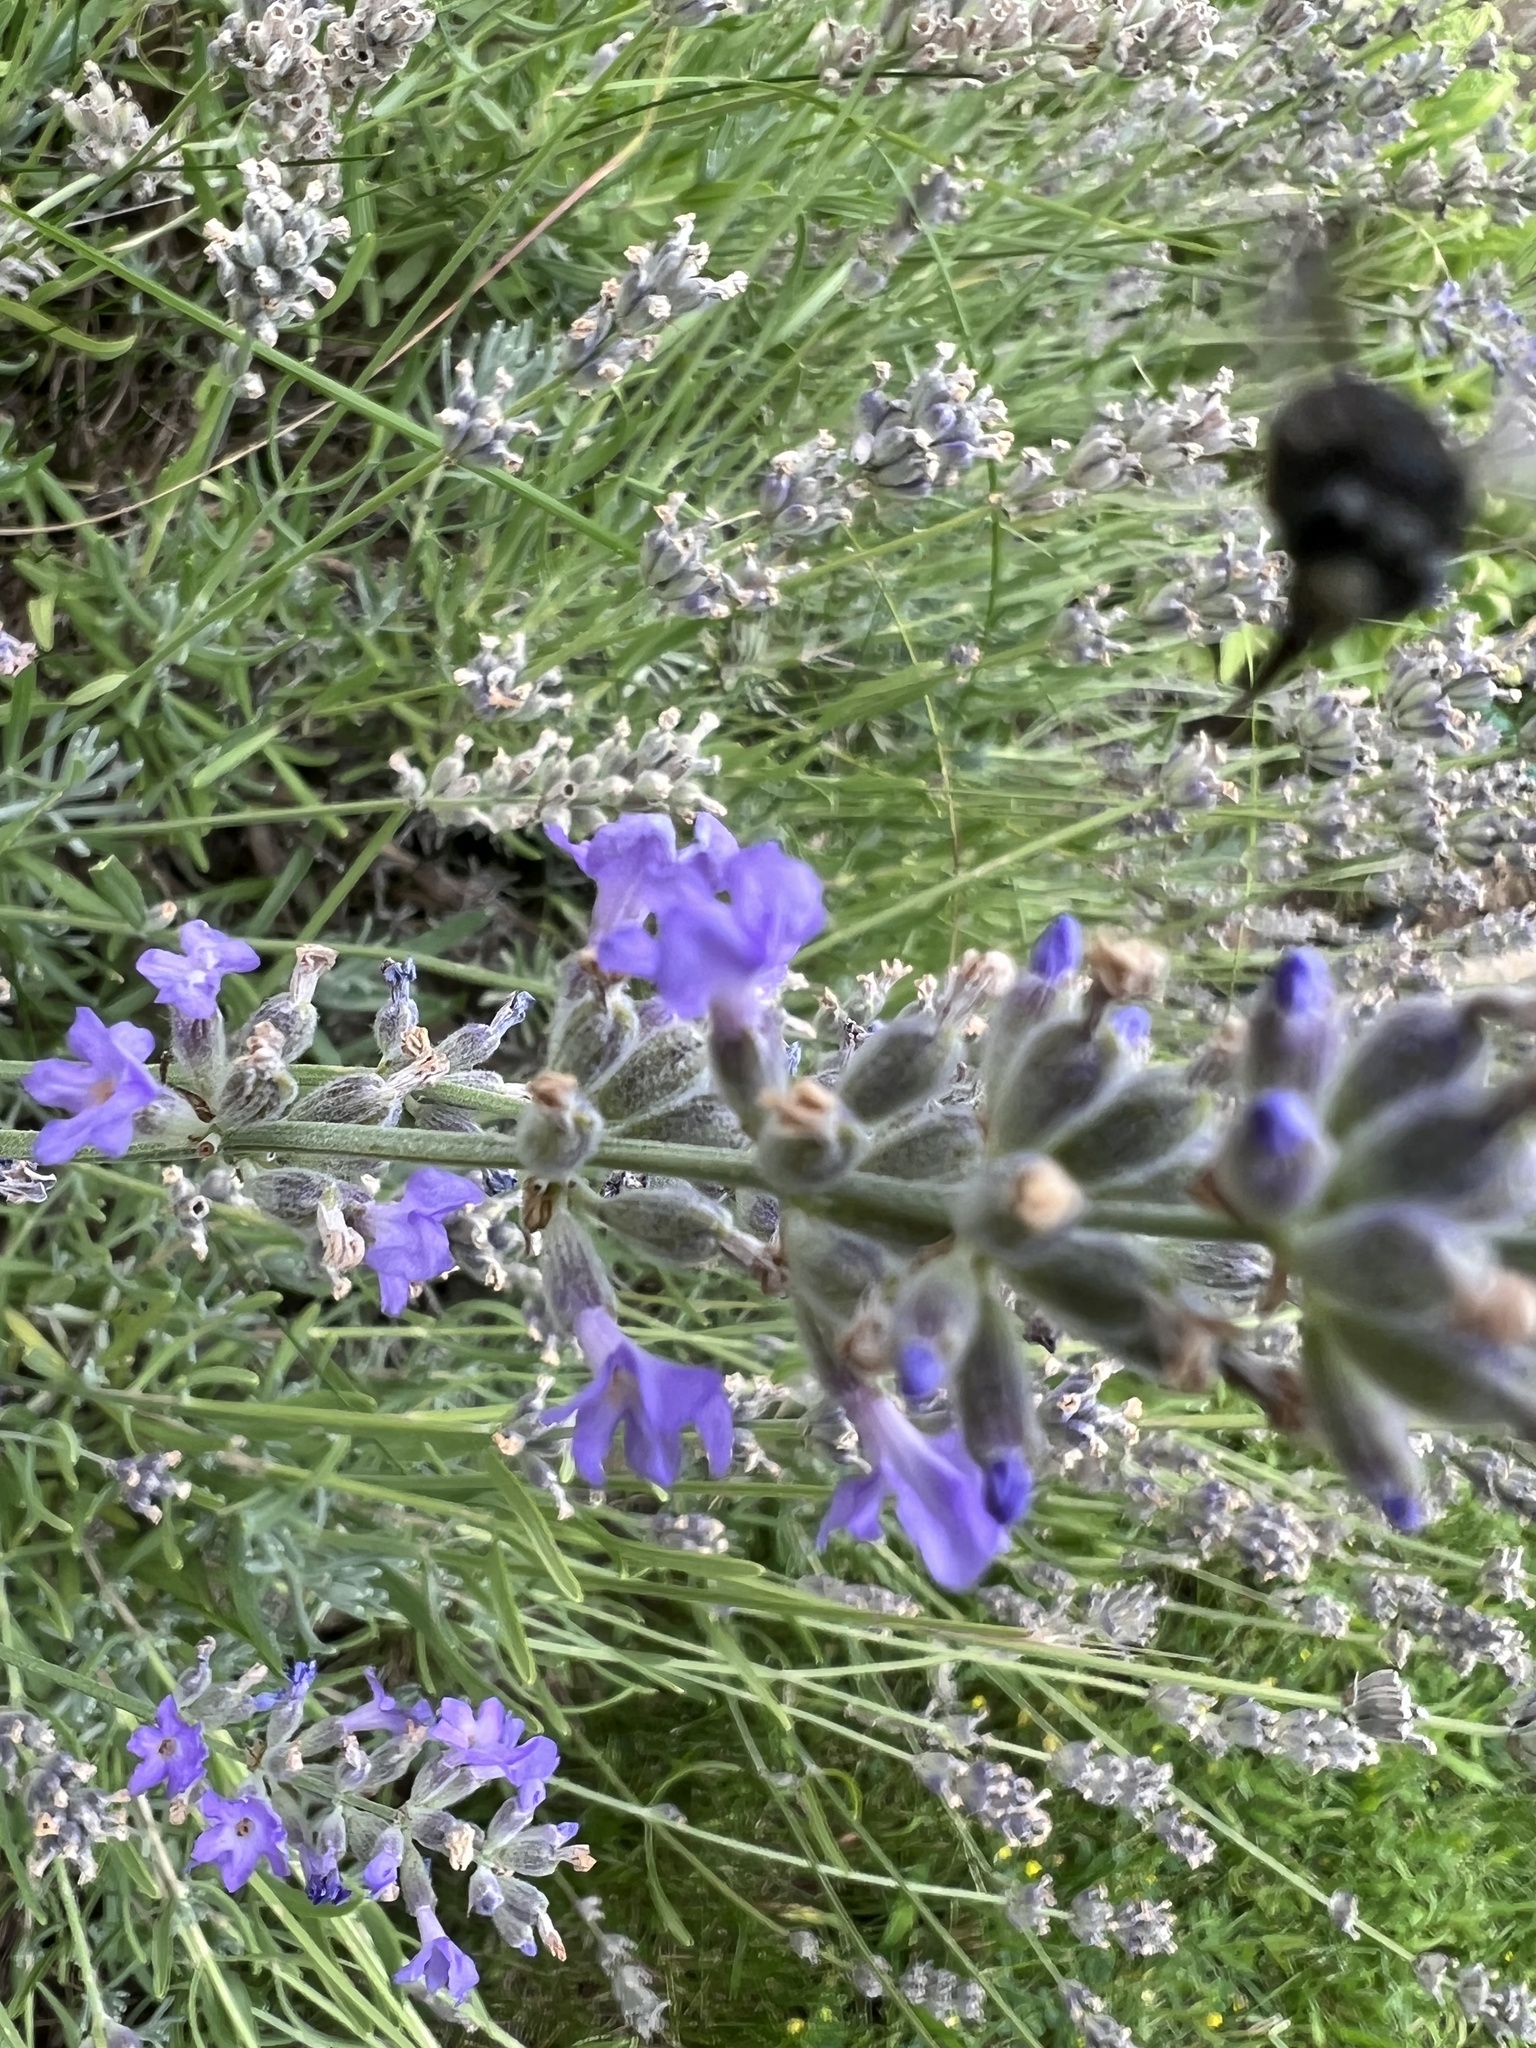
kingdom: Animalia
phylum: Arthropoda
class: Insecta
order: Hymenoptera
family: Apidae
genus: Melissodes
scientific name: Melissodes bimaculatus
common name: Two-spotted long-horned bee
